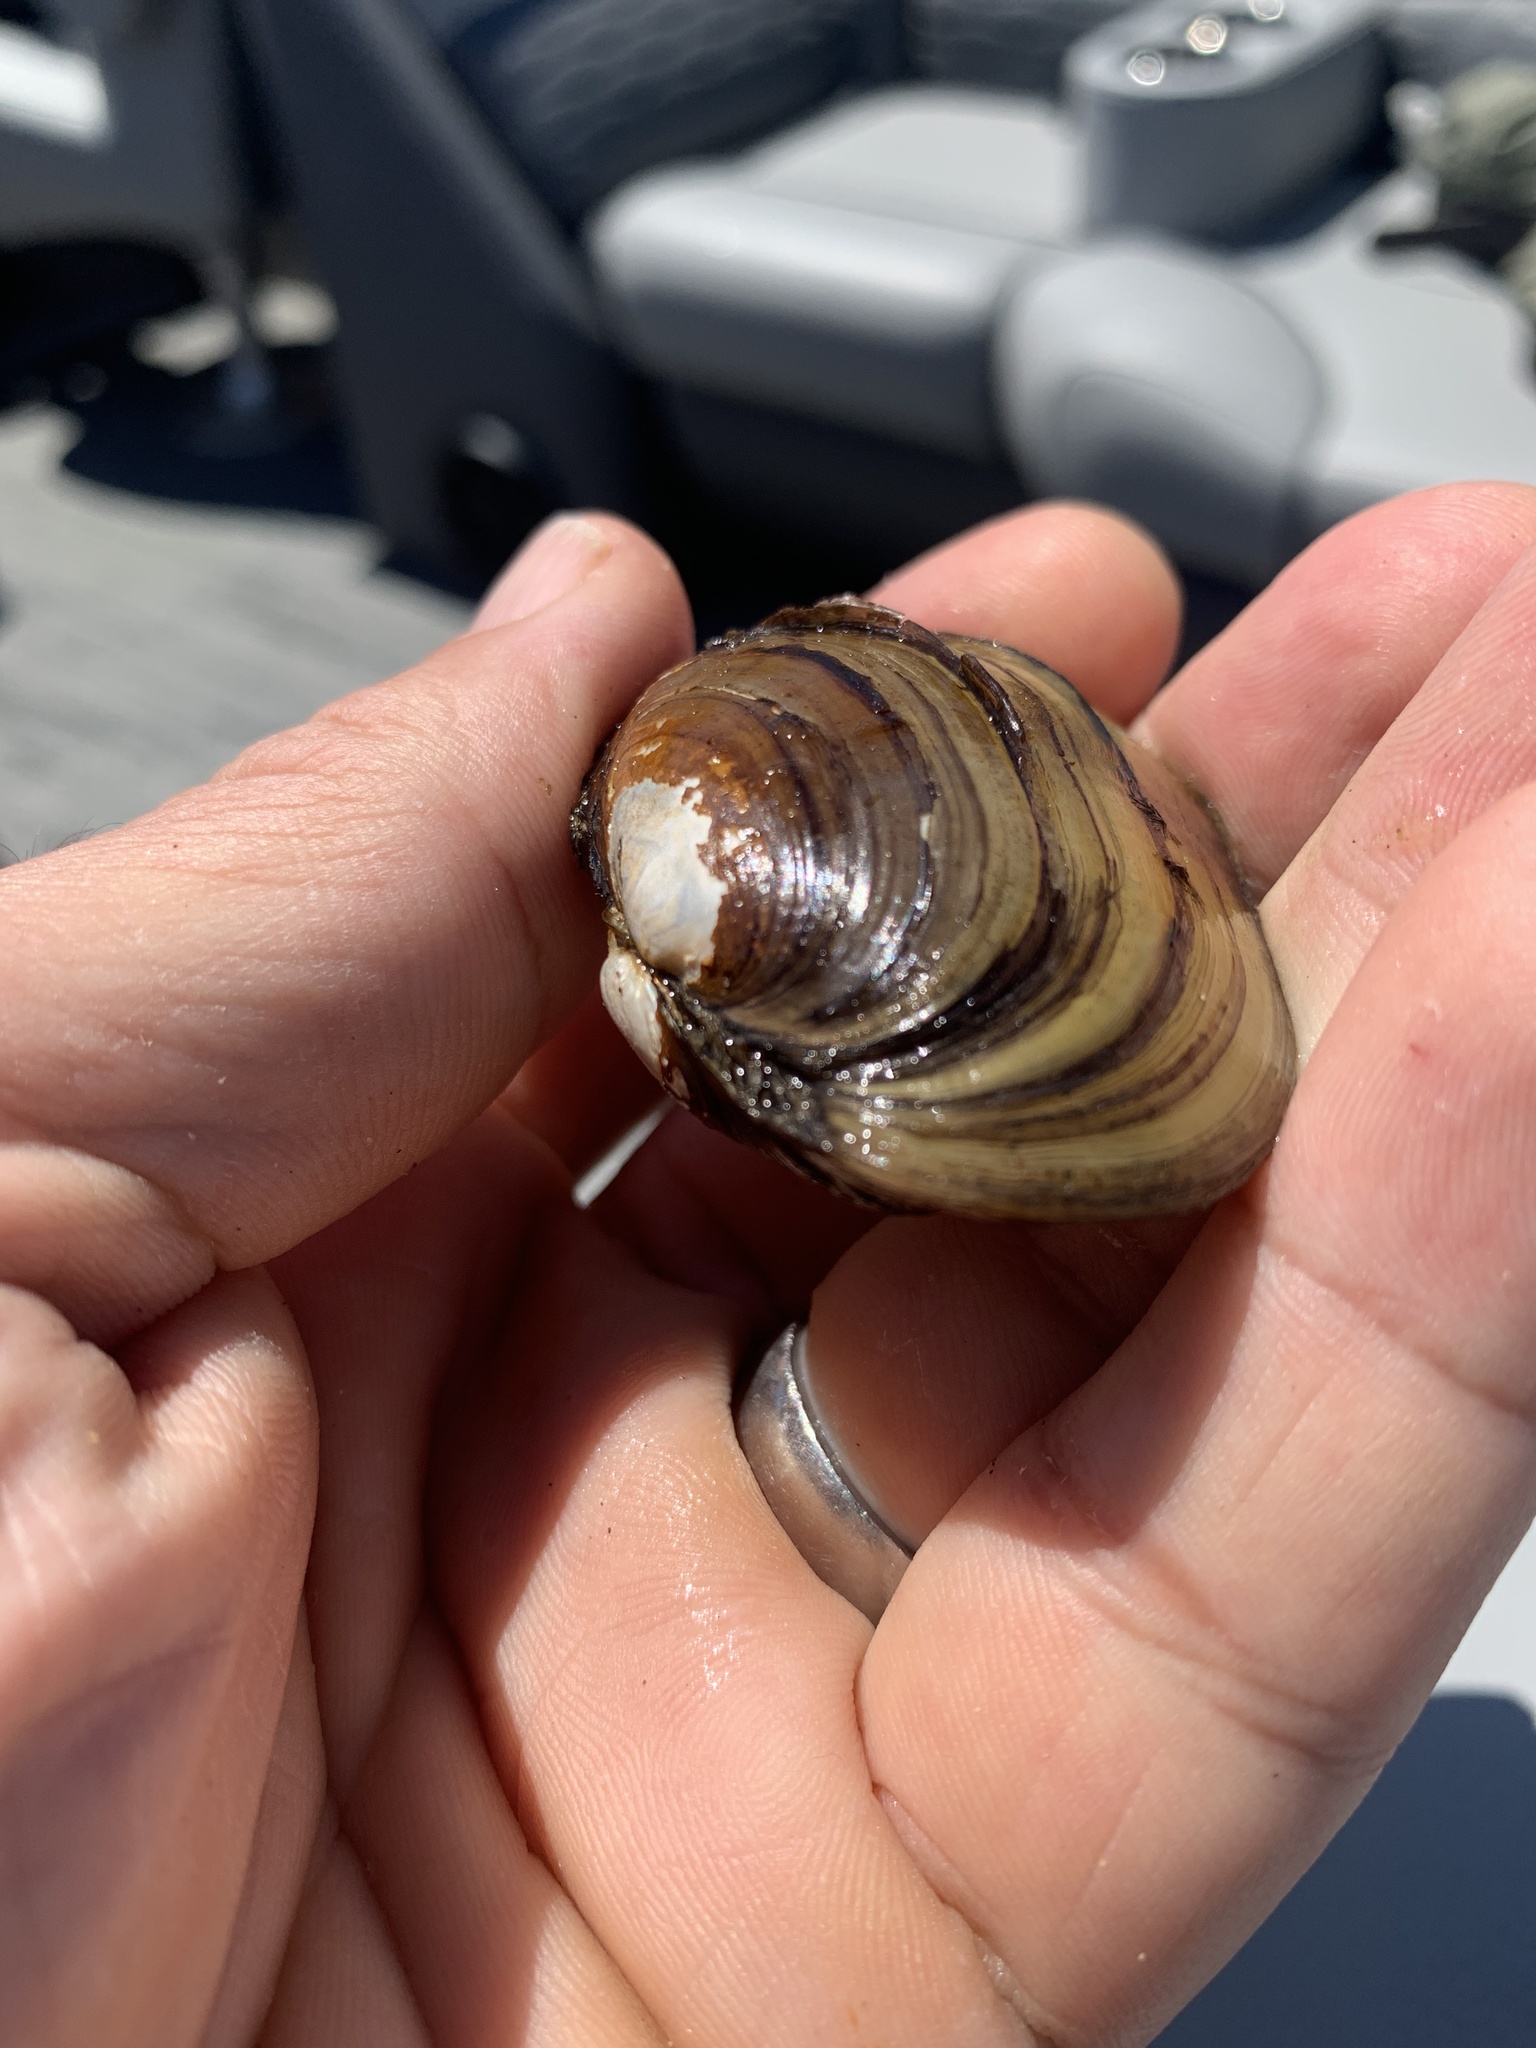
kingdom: Animalia
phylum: Mollusca
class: Bivalvia
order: Unionida
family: Unionidae
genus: Lampsilis
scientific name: Lampsilis siliquoidea
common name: Fatmucket
